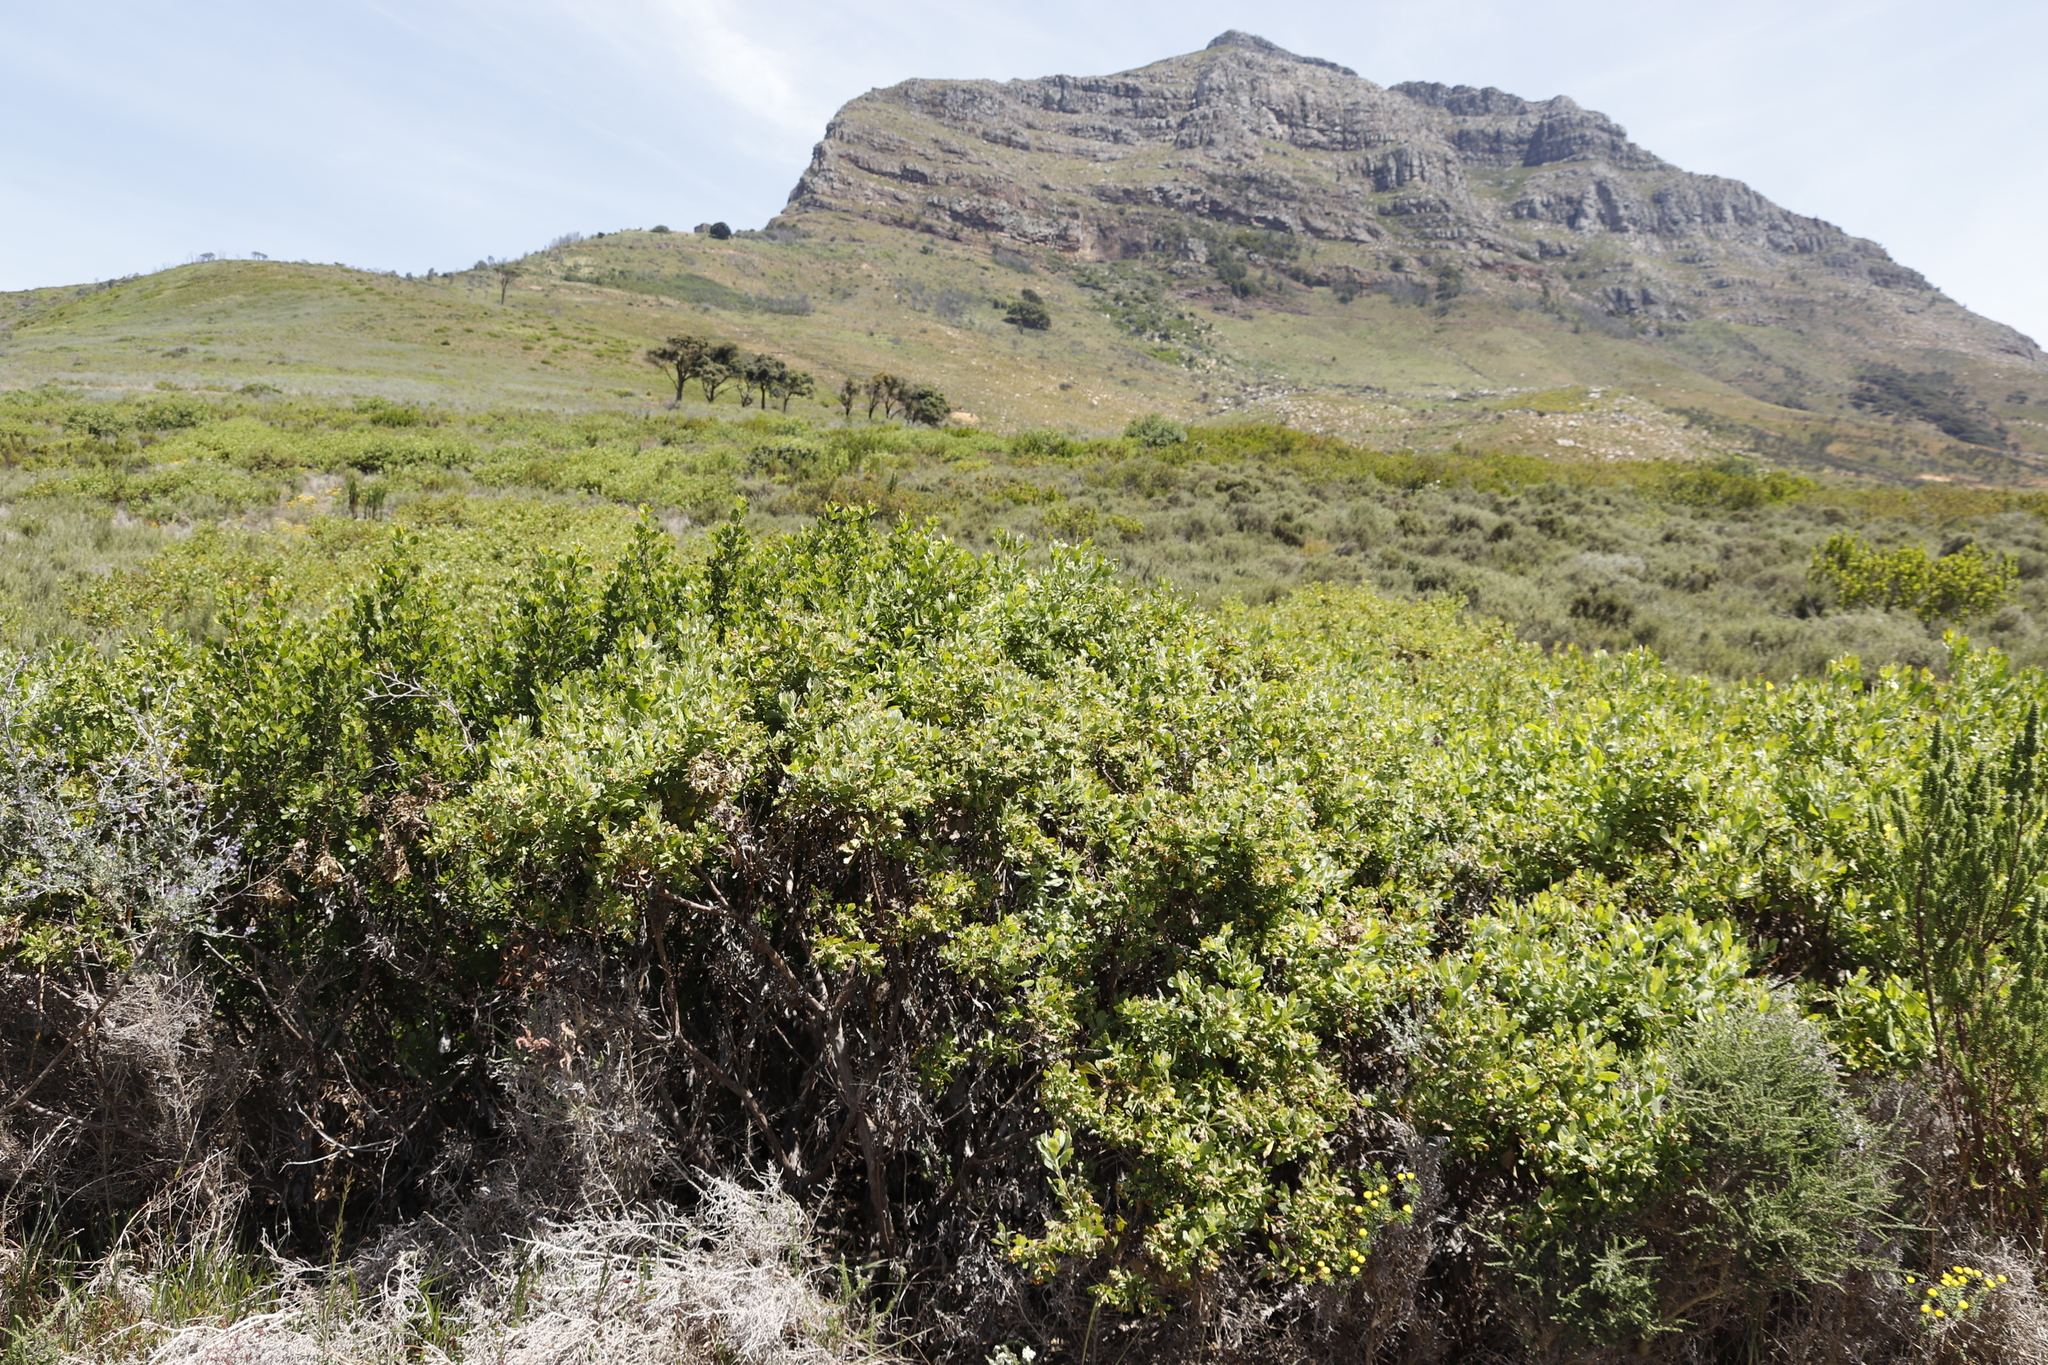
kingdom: Plantae
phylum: Tracheophyta
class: Magnoliopsida
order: Asterales
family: Asteraceae
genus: Osteospermum
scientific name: Osteospermum moniliferum
